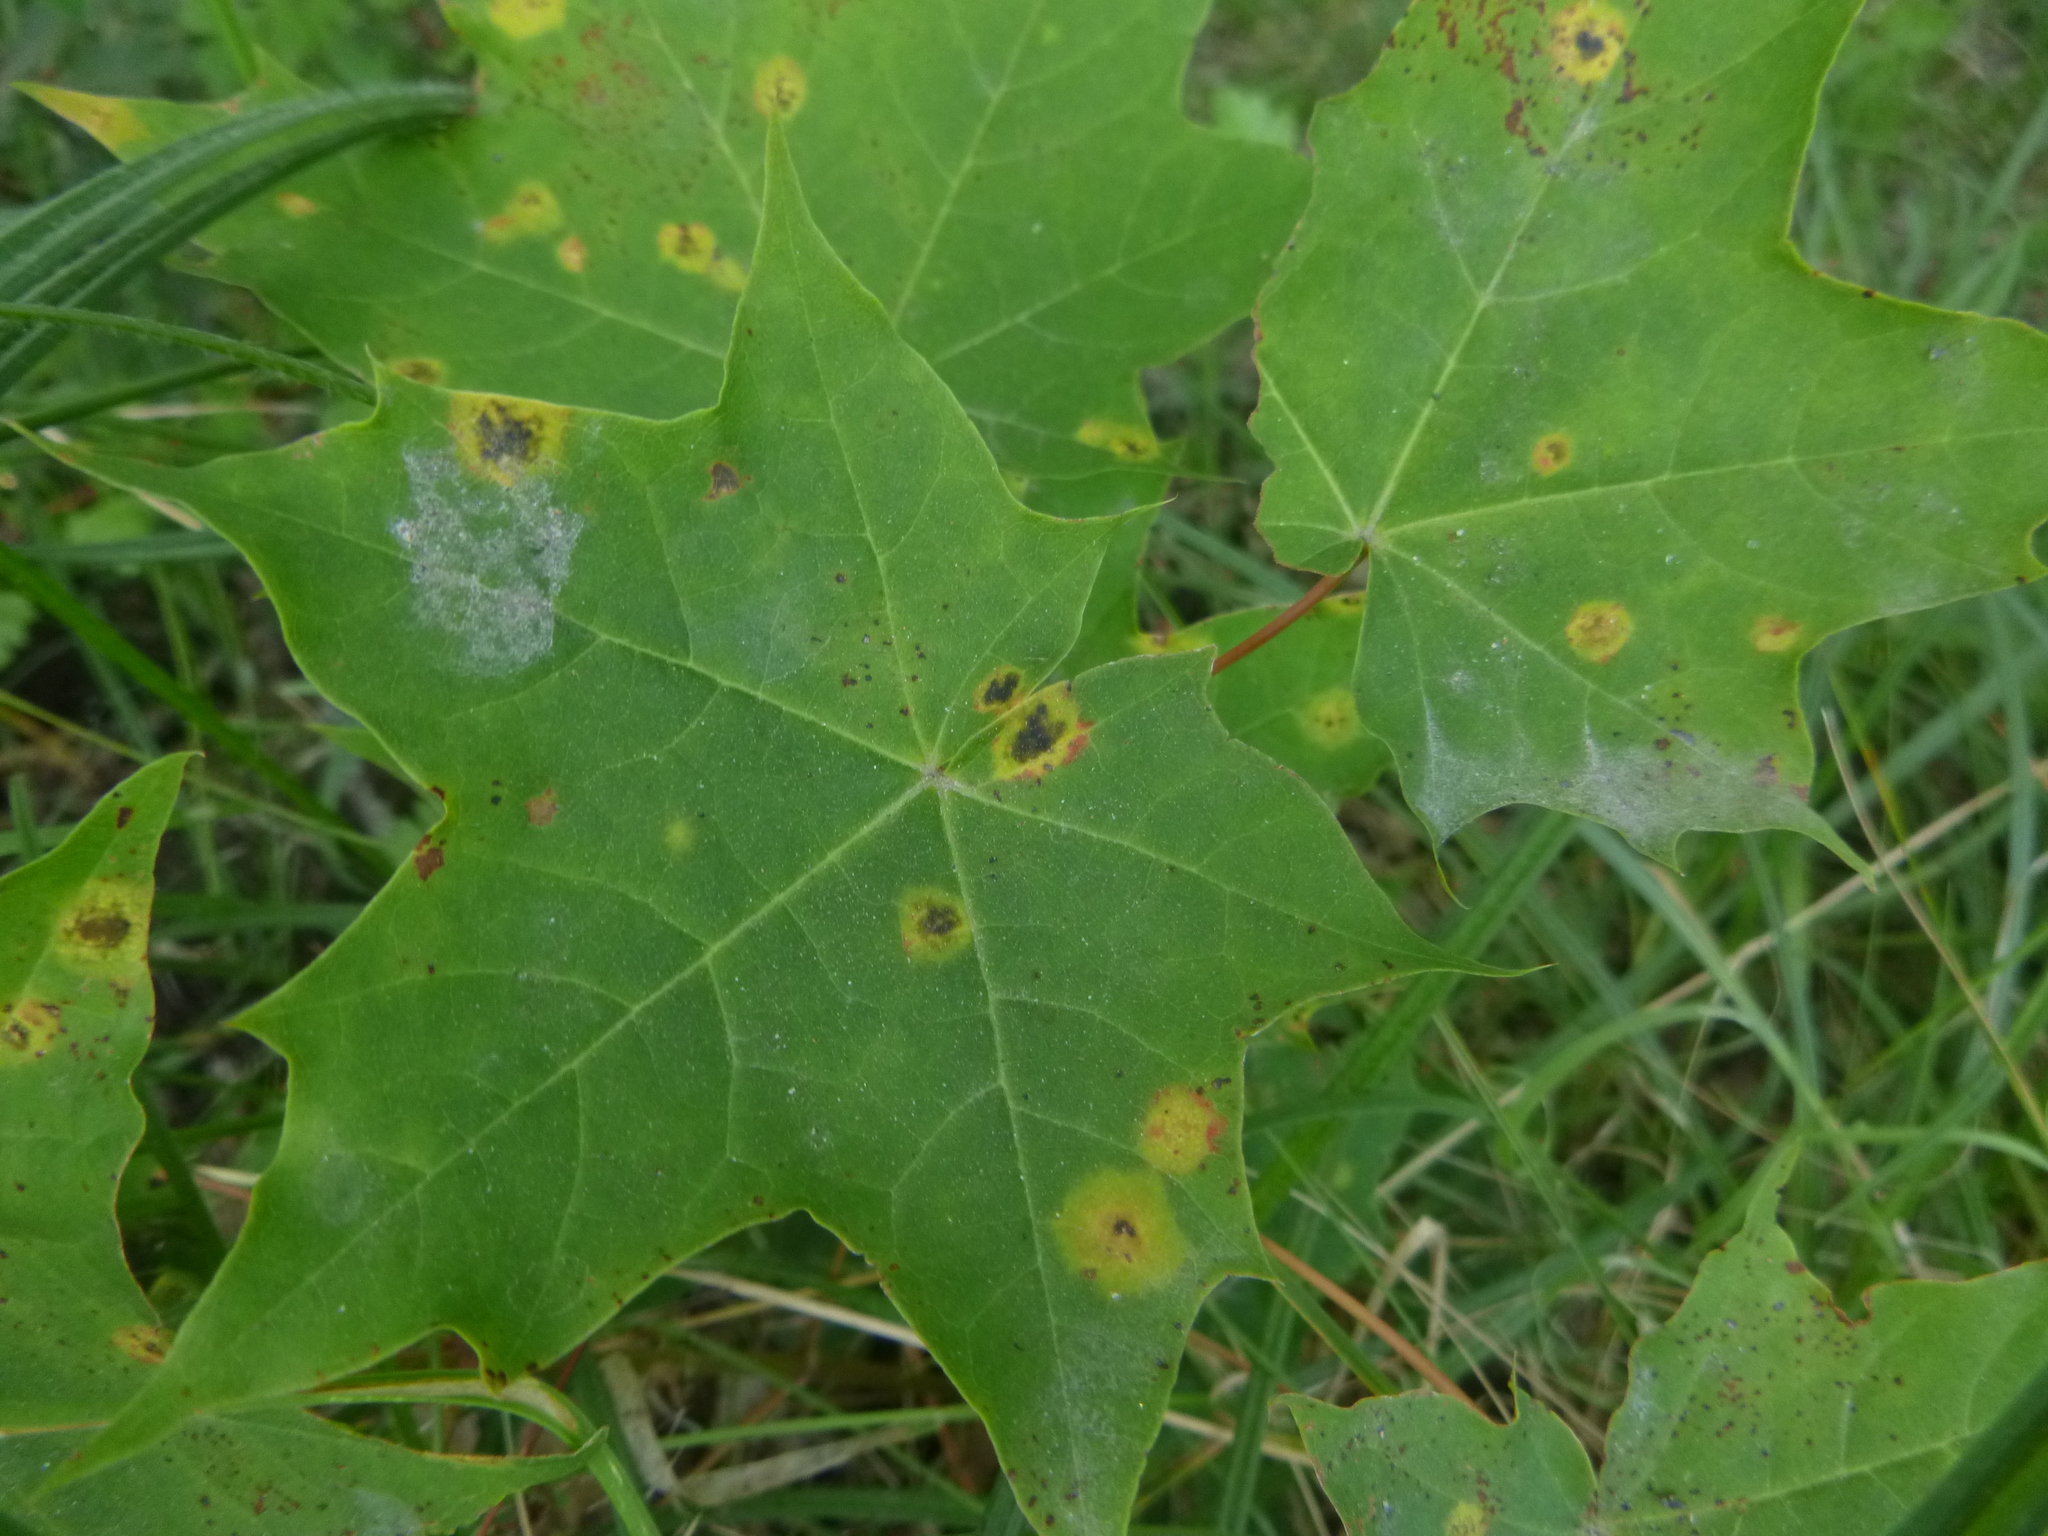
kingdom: Plantae
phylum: Tracheophyta
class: Magnoliopsida
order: Sapindales
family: Sapindaceae
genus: Acer
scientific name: Acer platanoides
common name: Norway maple
